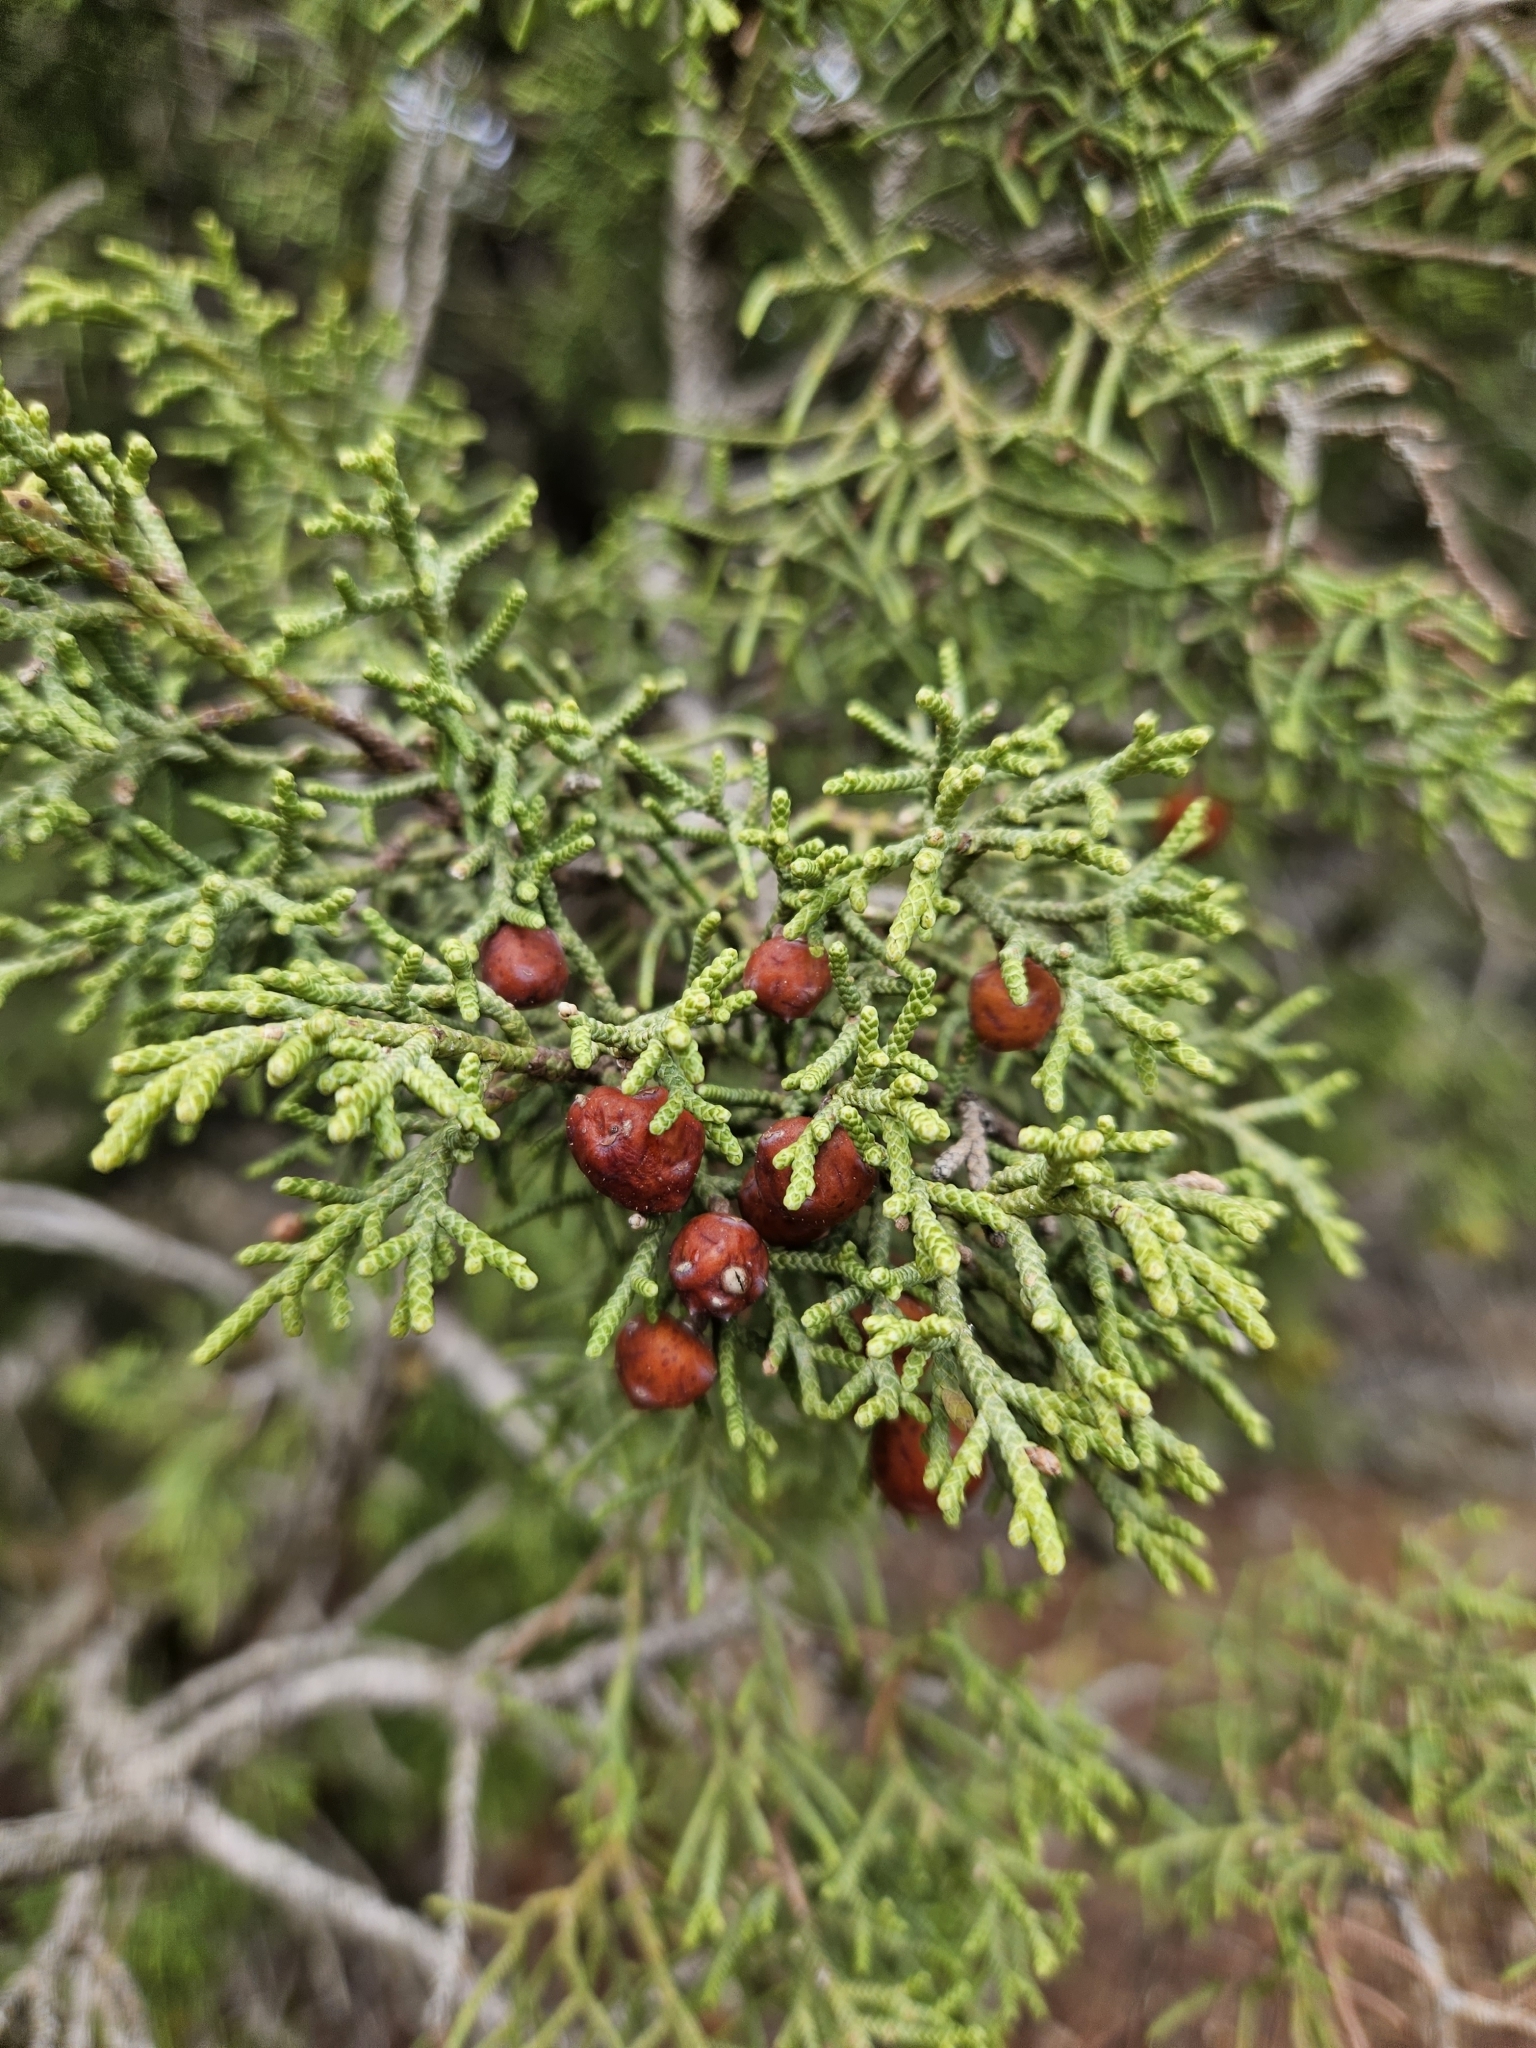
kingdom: Plantae
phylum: Tracheophyta
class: Pinopsida
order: Pinales
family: Cupressaceae
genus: Juniperus
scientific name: Juniperus phoenicea
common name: Phoenician juniper
